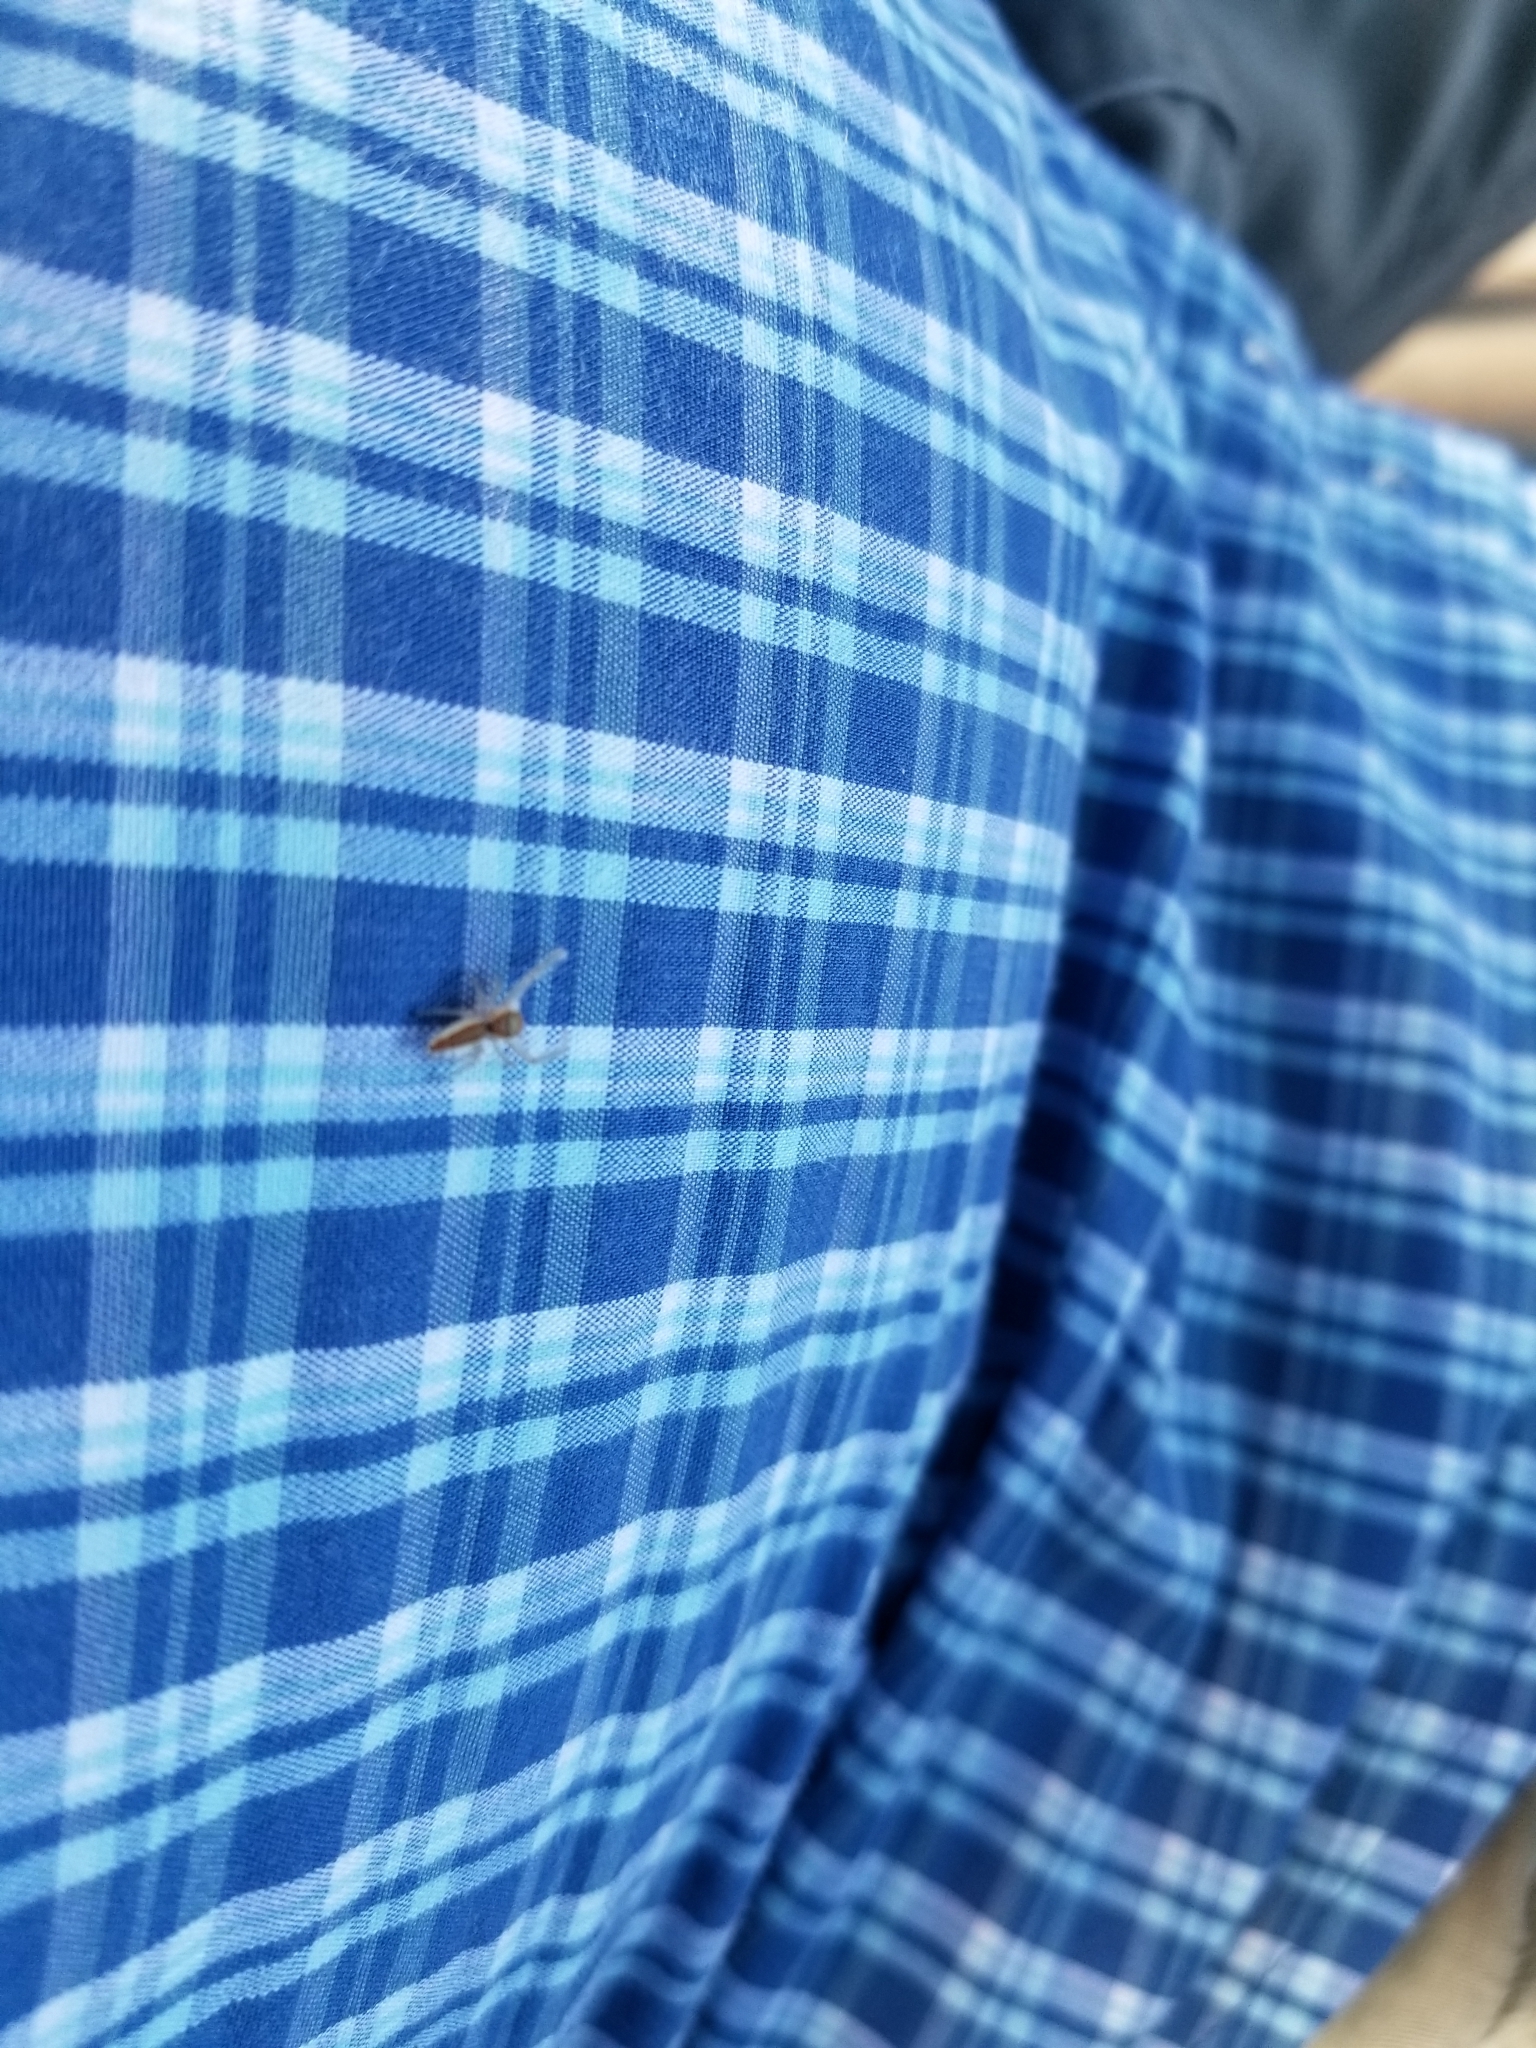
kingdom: Animalia
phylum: Arthropoda
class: Arachnida
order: Araneae
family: Salticidae
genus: Hentzia
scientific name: Hentzia mitrata
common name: White-jawed jumping spider
